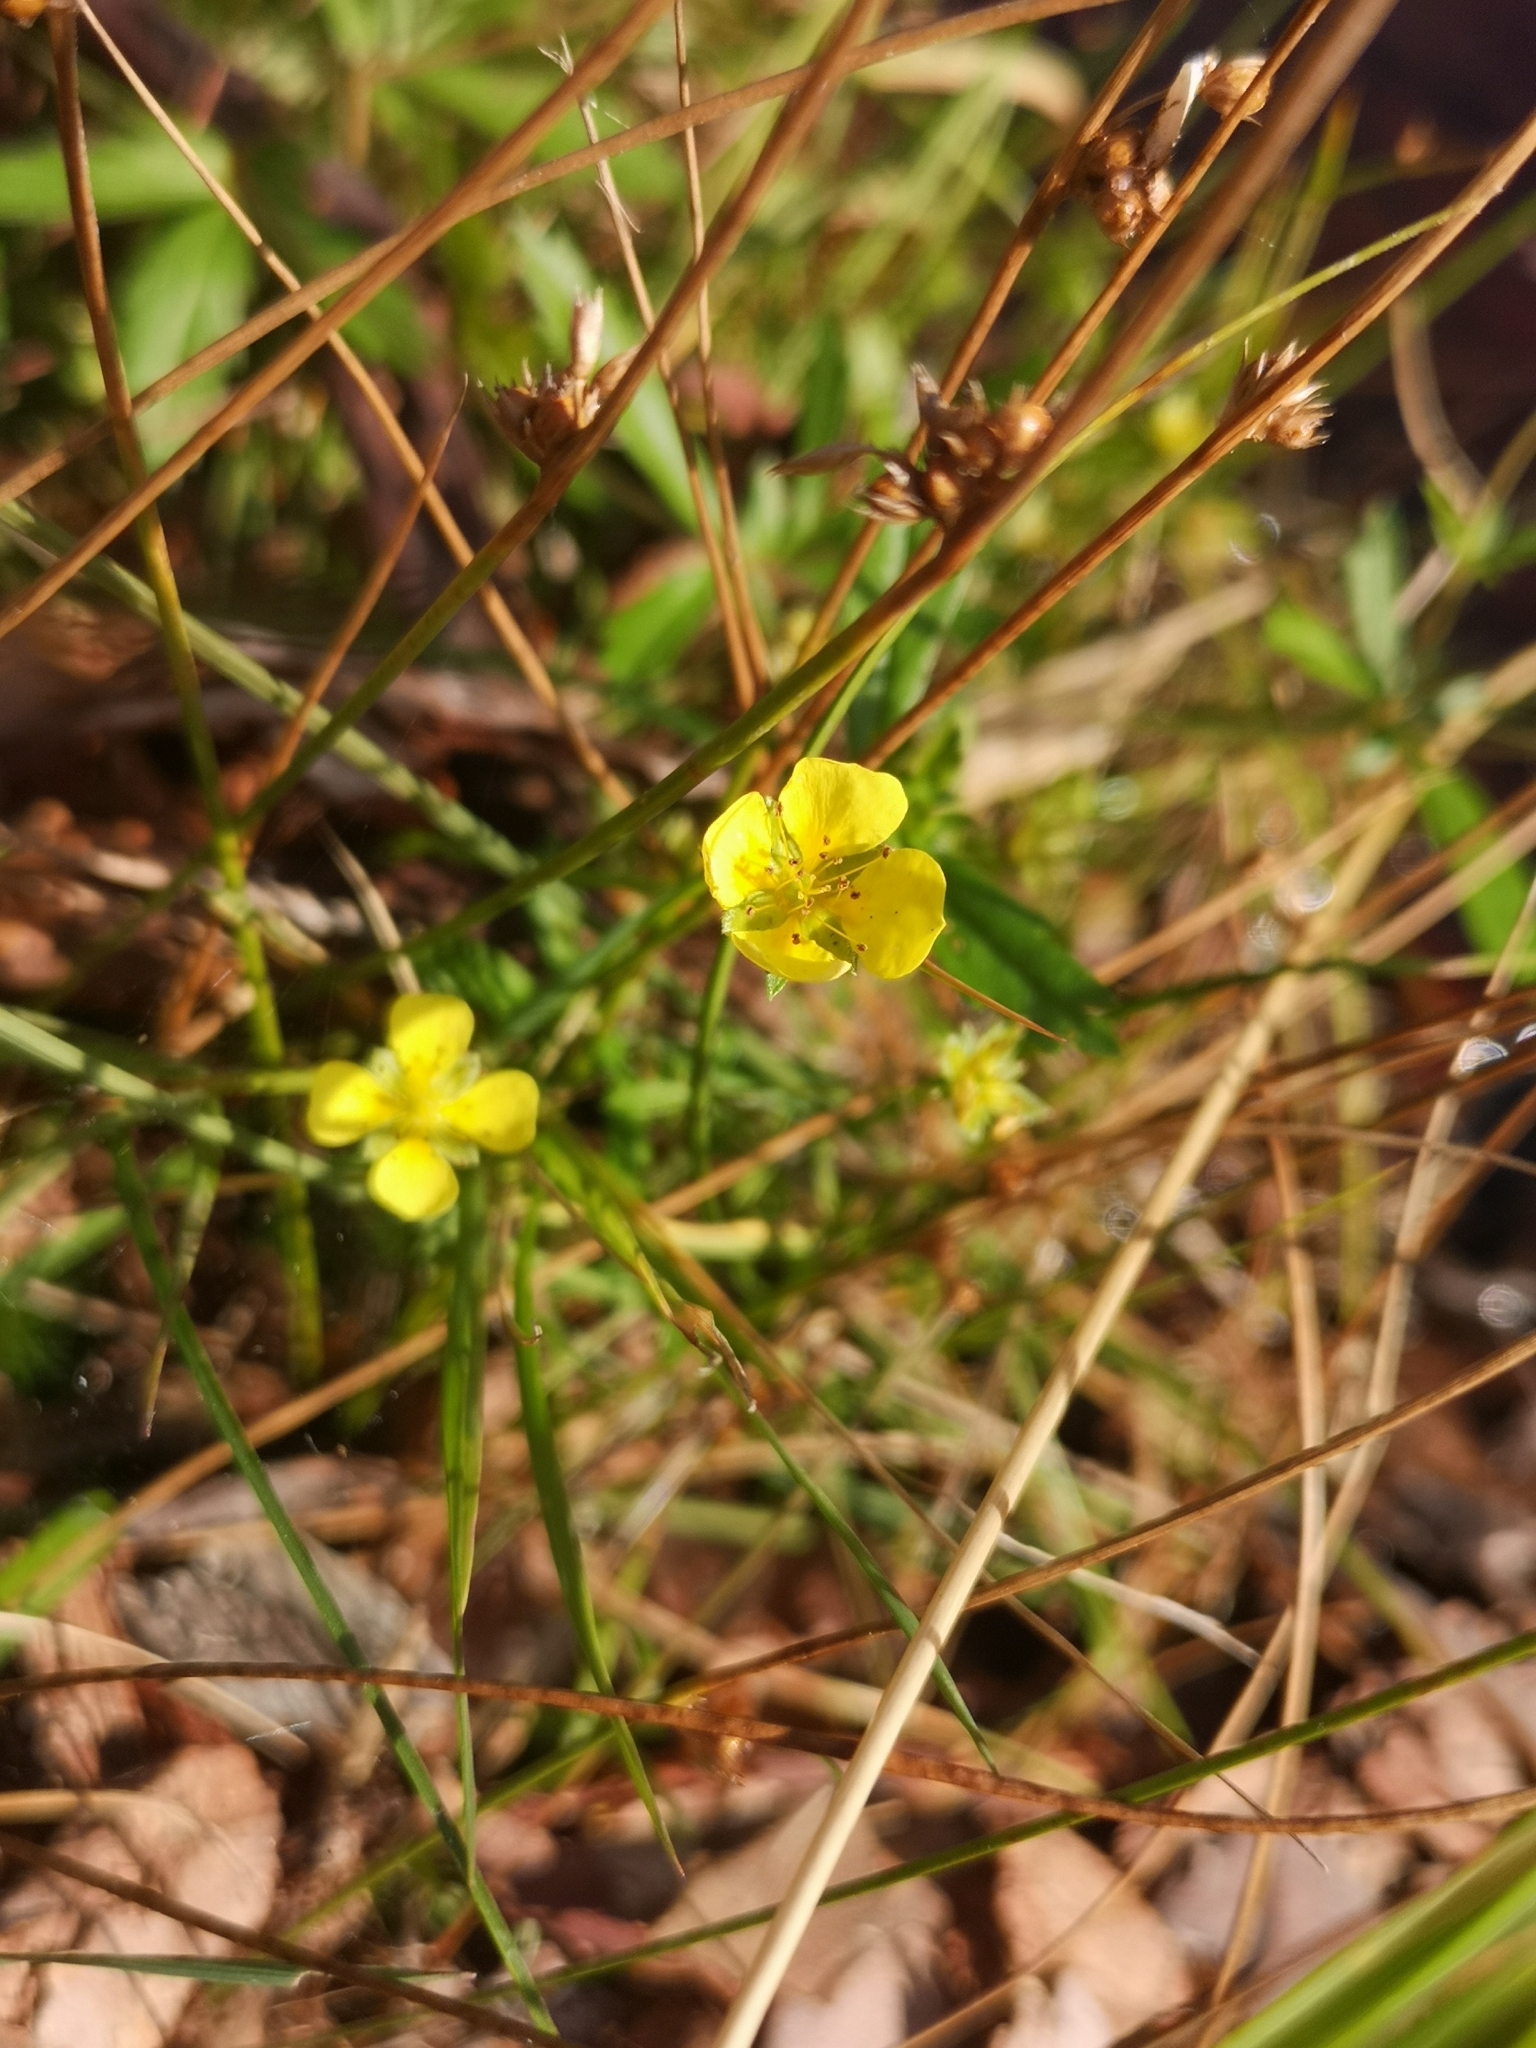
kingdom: Plantae
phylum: Tracheophyta
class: Magnoliopsida
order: Rosales
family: Rosaceae
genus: Potentilla
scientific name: Potentilla erecta
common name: Tormentil
